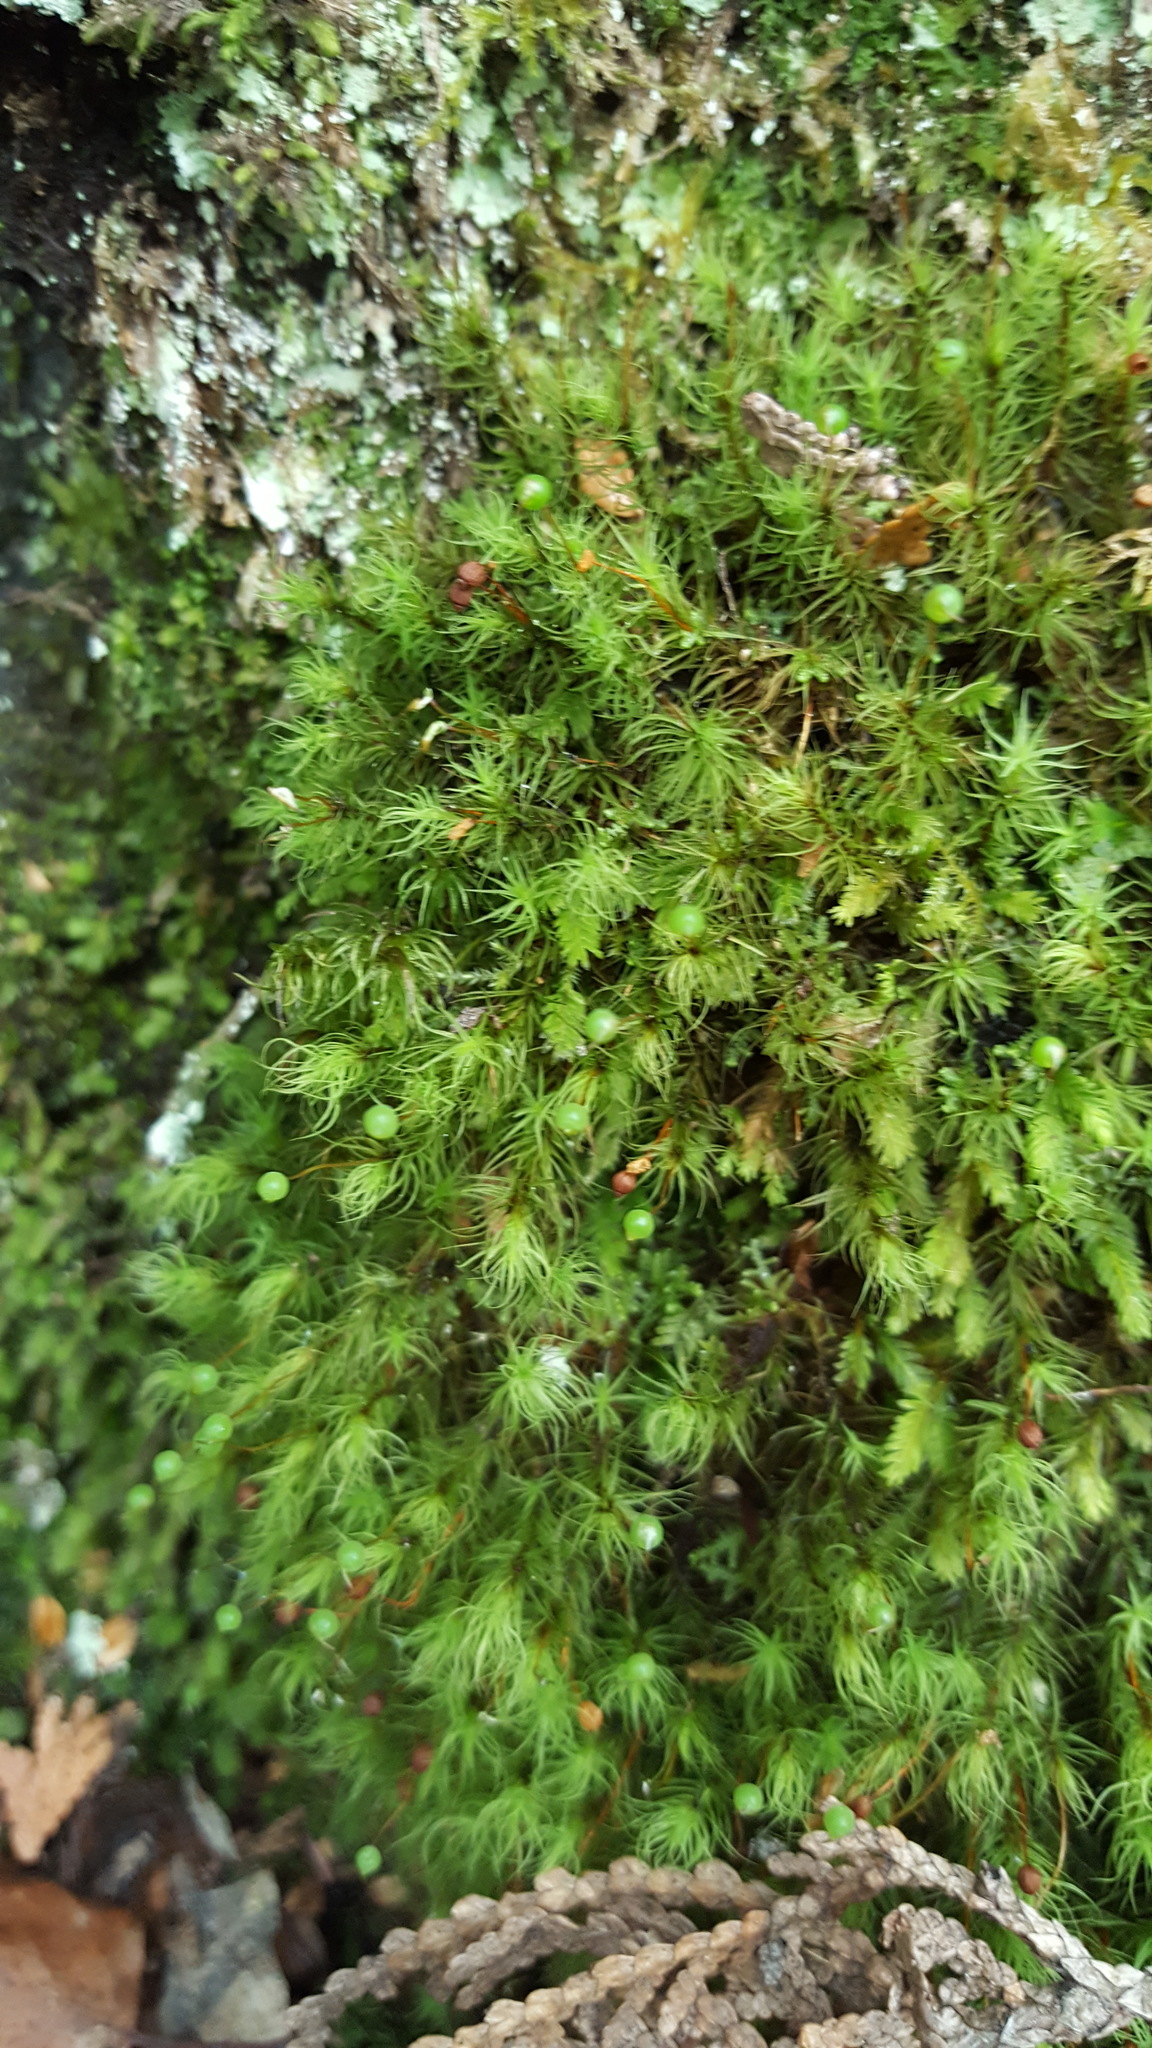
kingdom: Plantae
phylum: Bryophyta
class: Bryopsida
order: Bartramiales
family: Bartramiaceae
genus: Bartramia
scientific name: Bartramia ithyphylla
